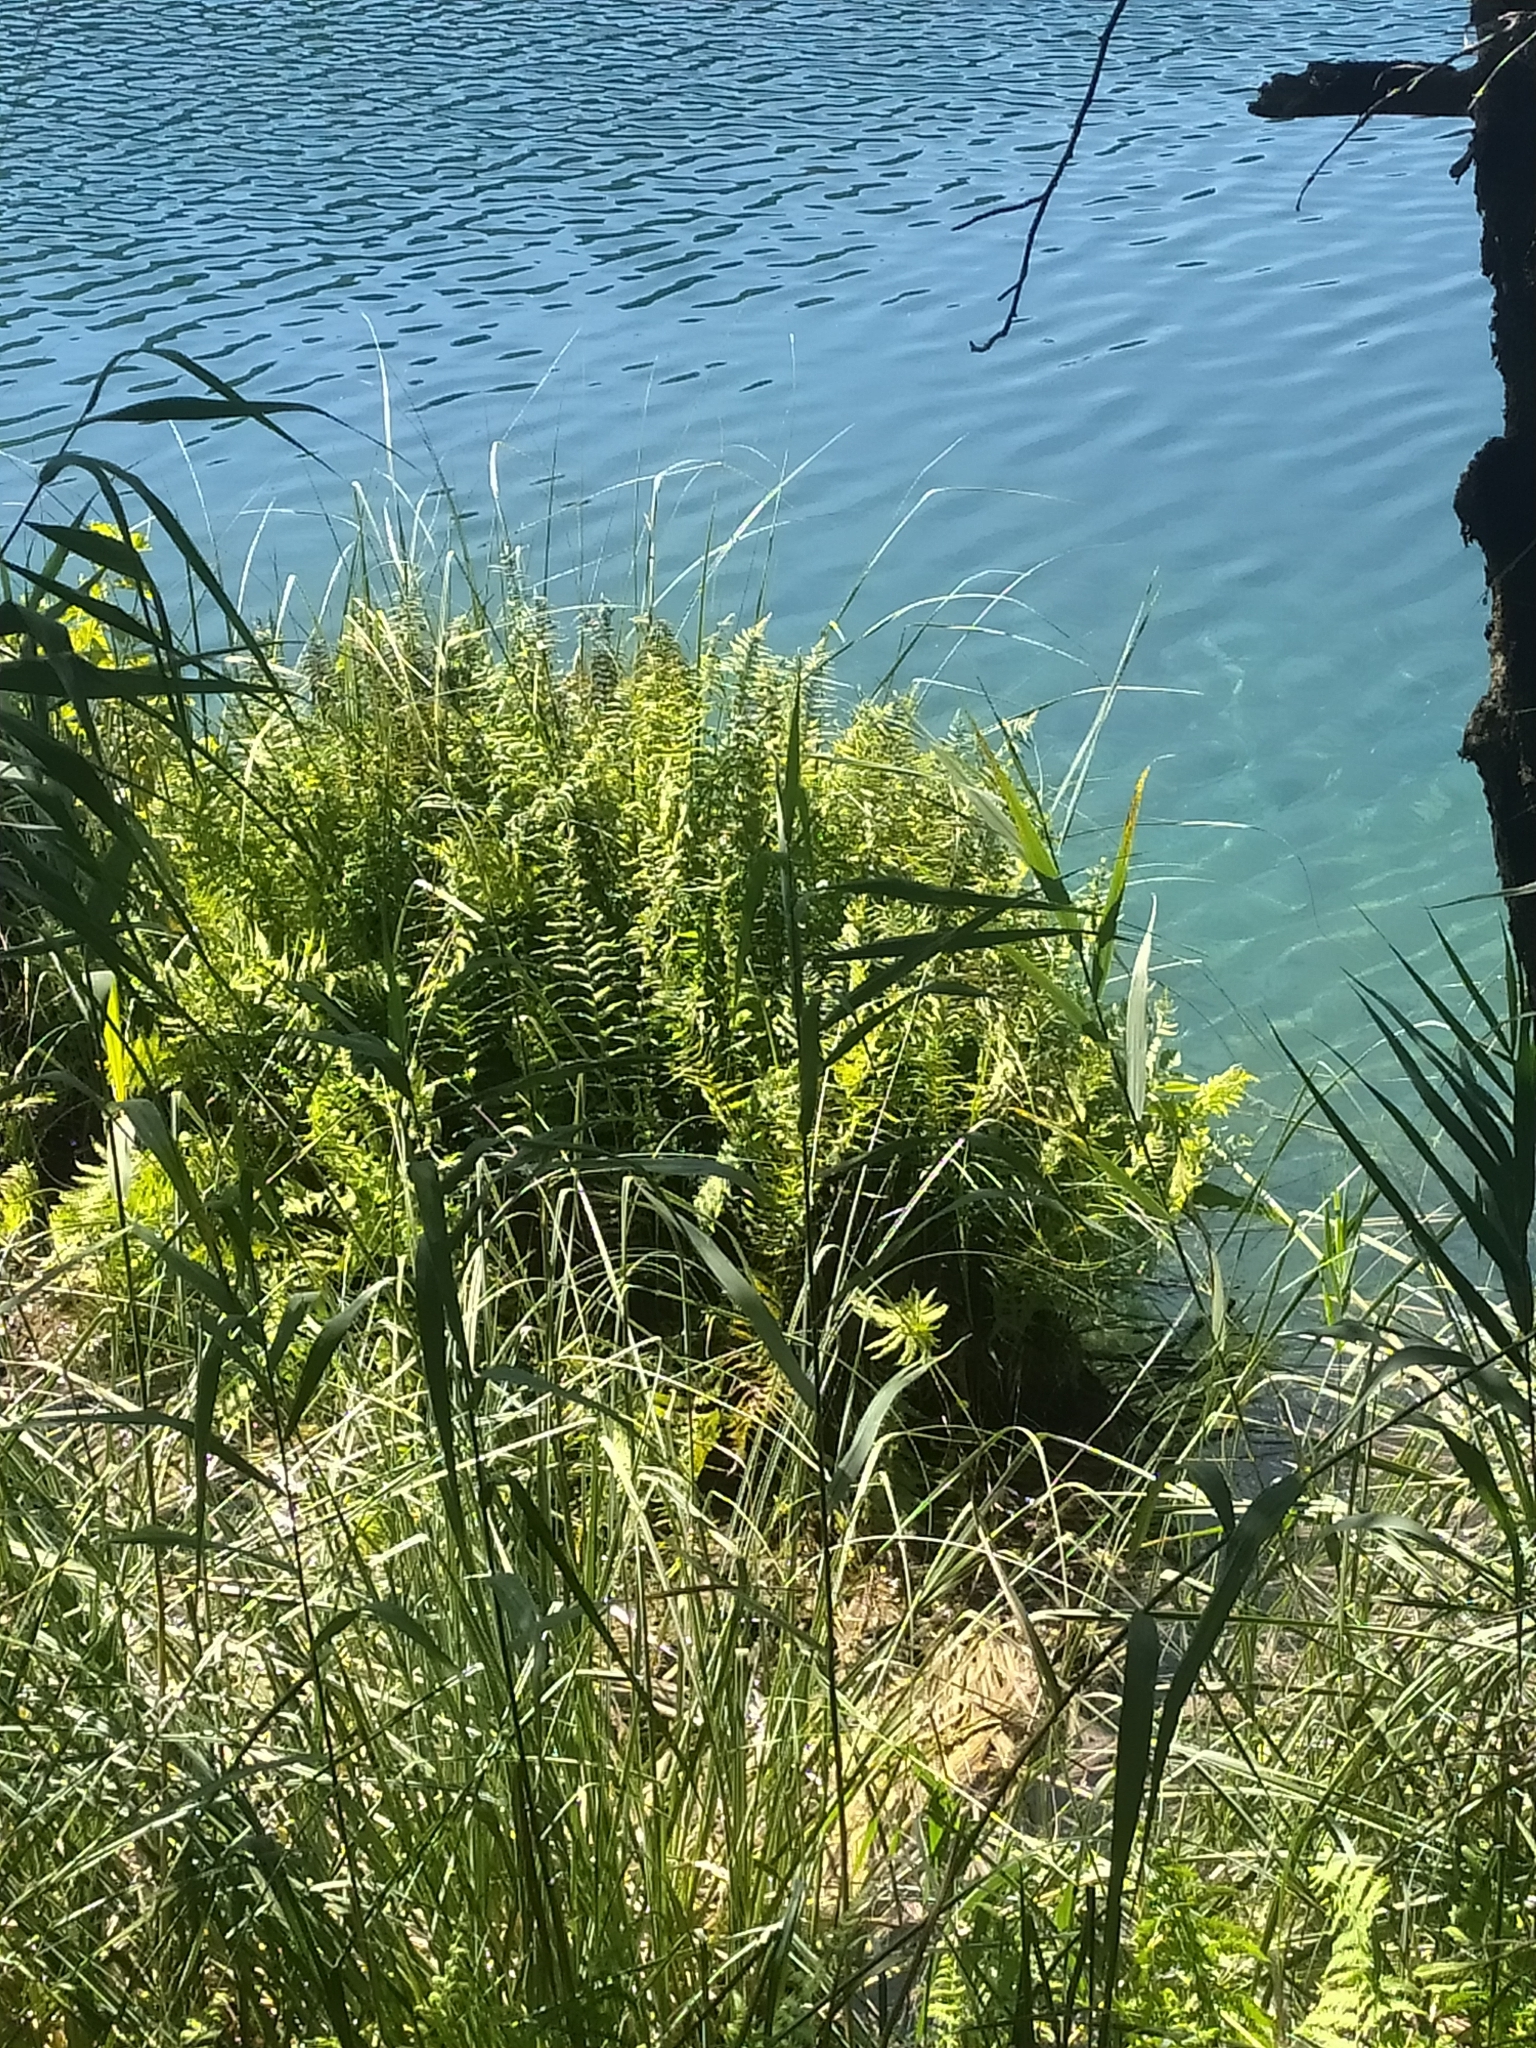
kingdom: Plantae
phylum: Tracheophyta
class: Polypodiopsida
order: Polypodiales
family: Thelypteridaceae
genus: Thelypteris
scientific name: Thelypteris palustris
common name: Marsh fern
